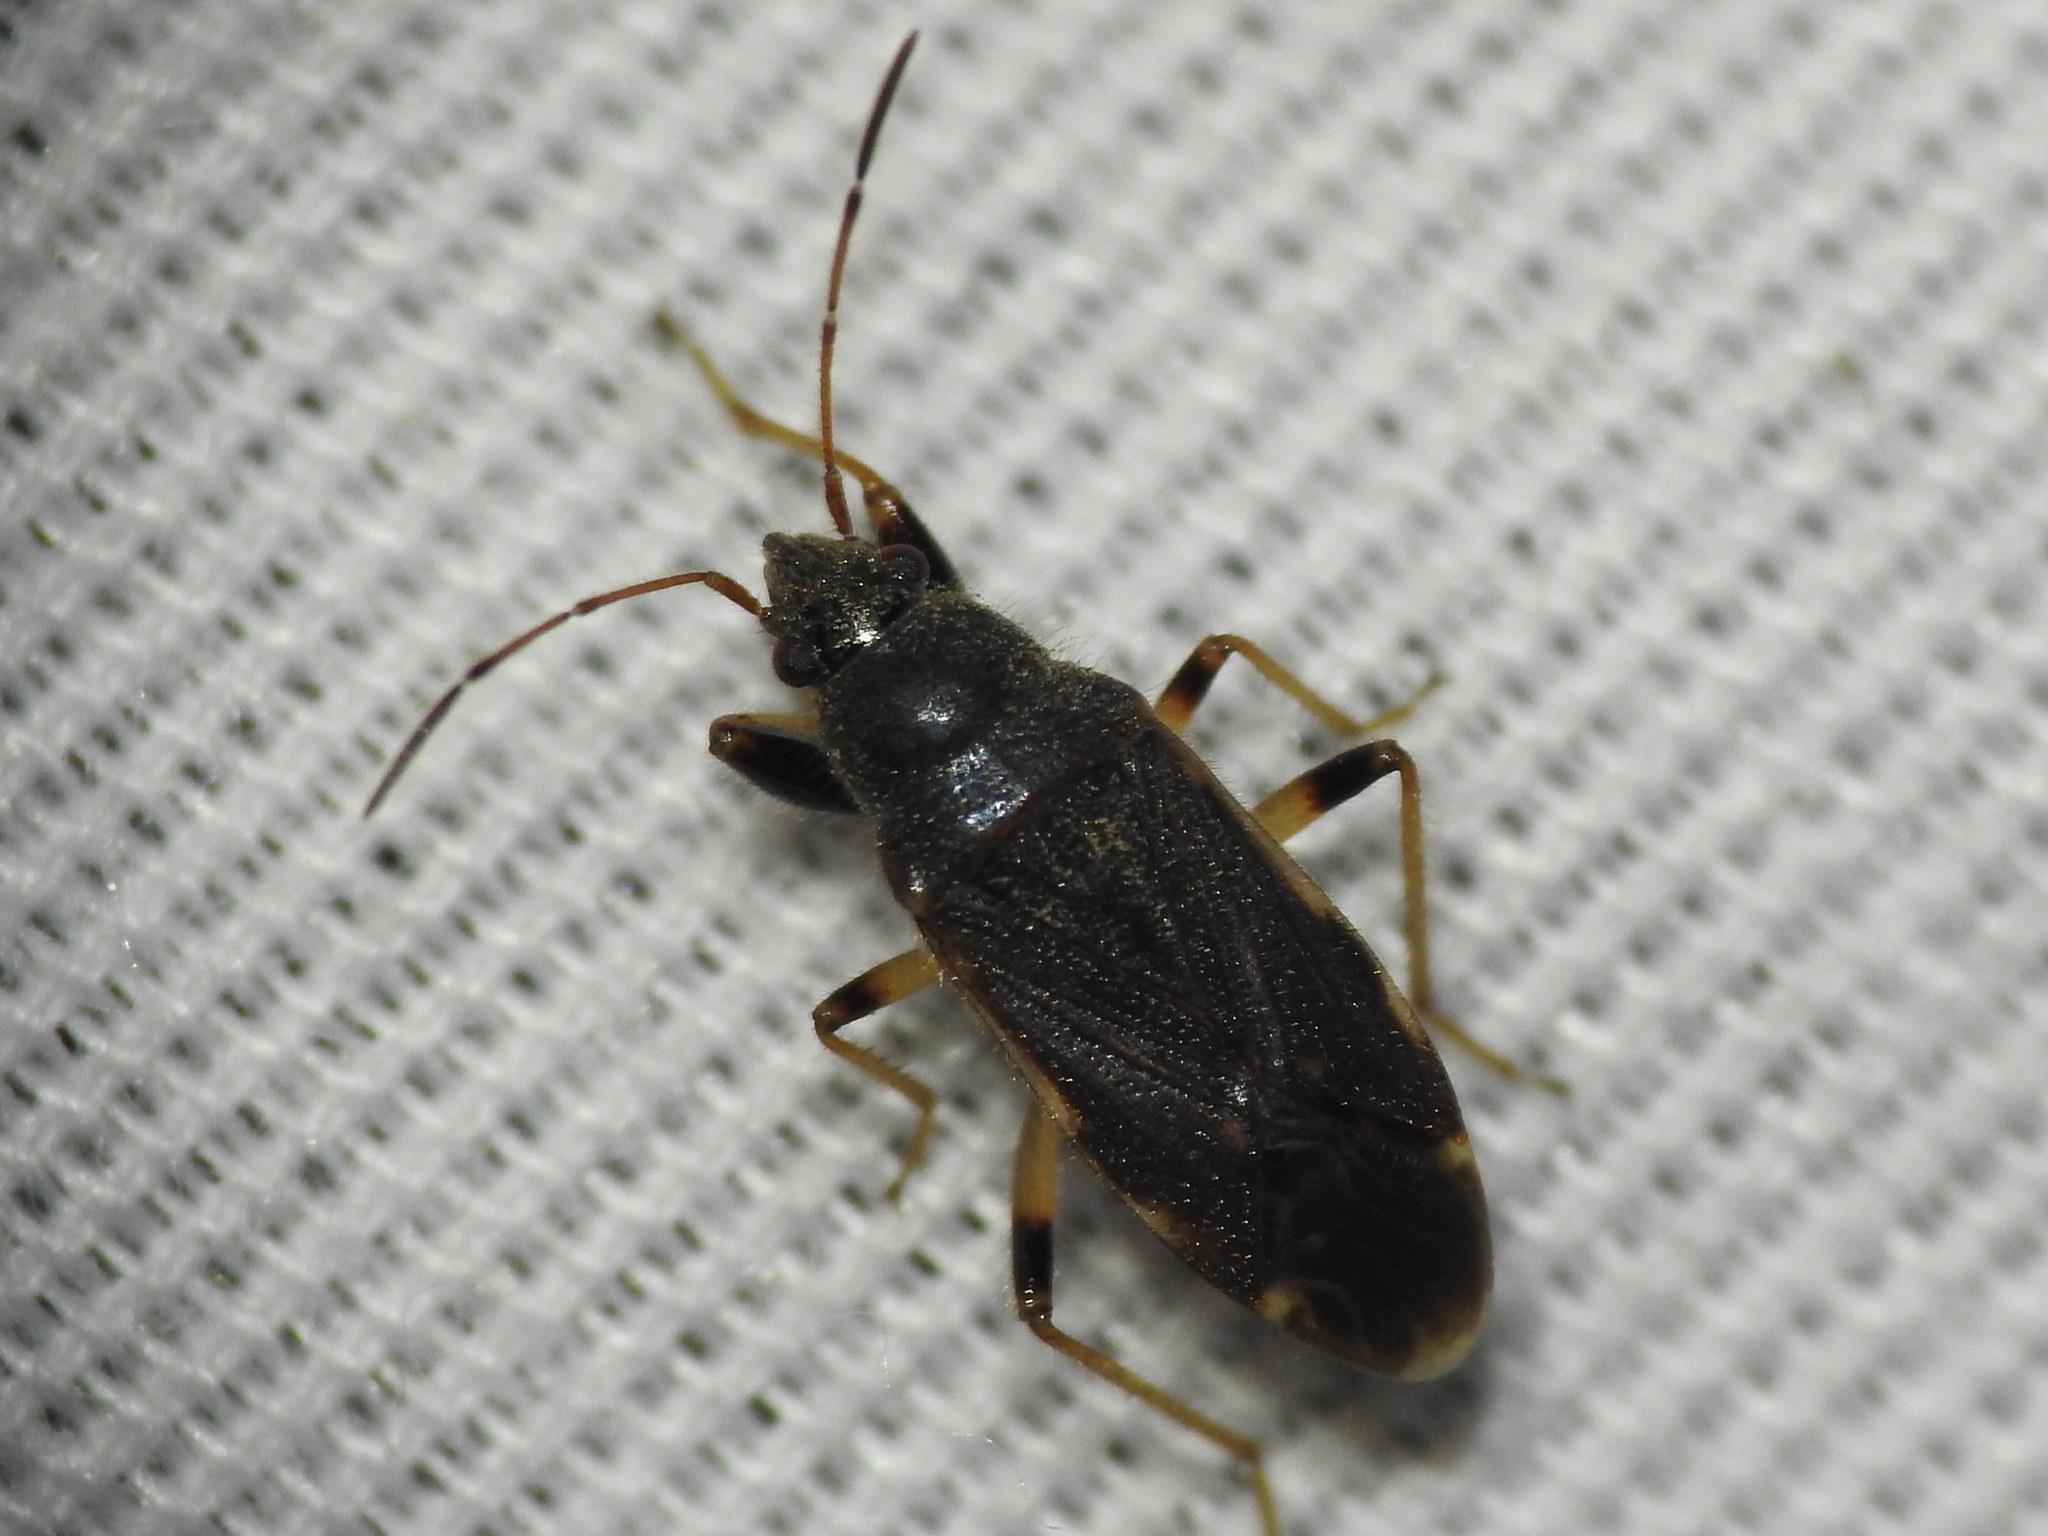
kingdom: Animalia
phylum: Arthropoda
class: Insecta
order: Hemiptera
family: Rhyparochromidae
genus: Perigenes
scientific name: Perigenes similis
